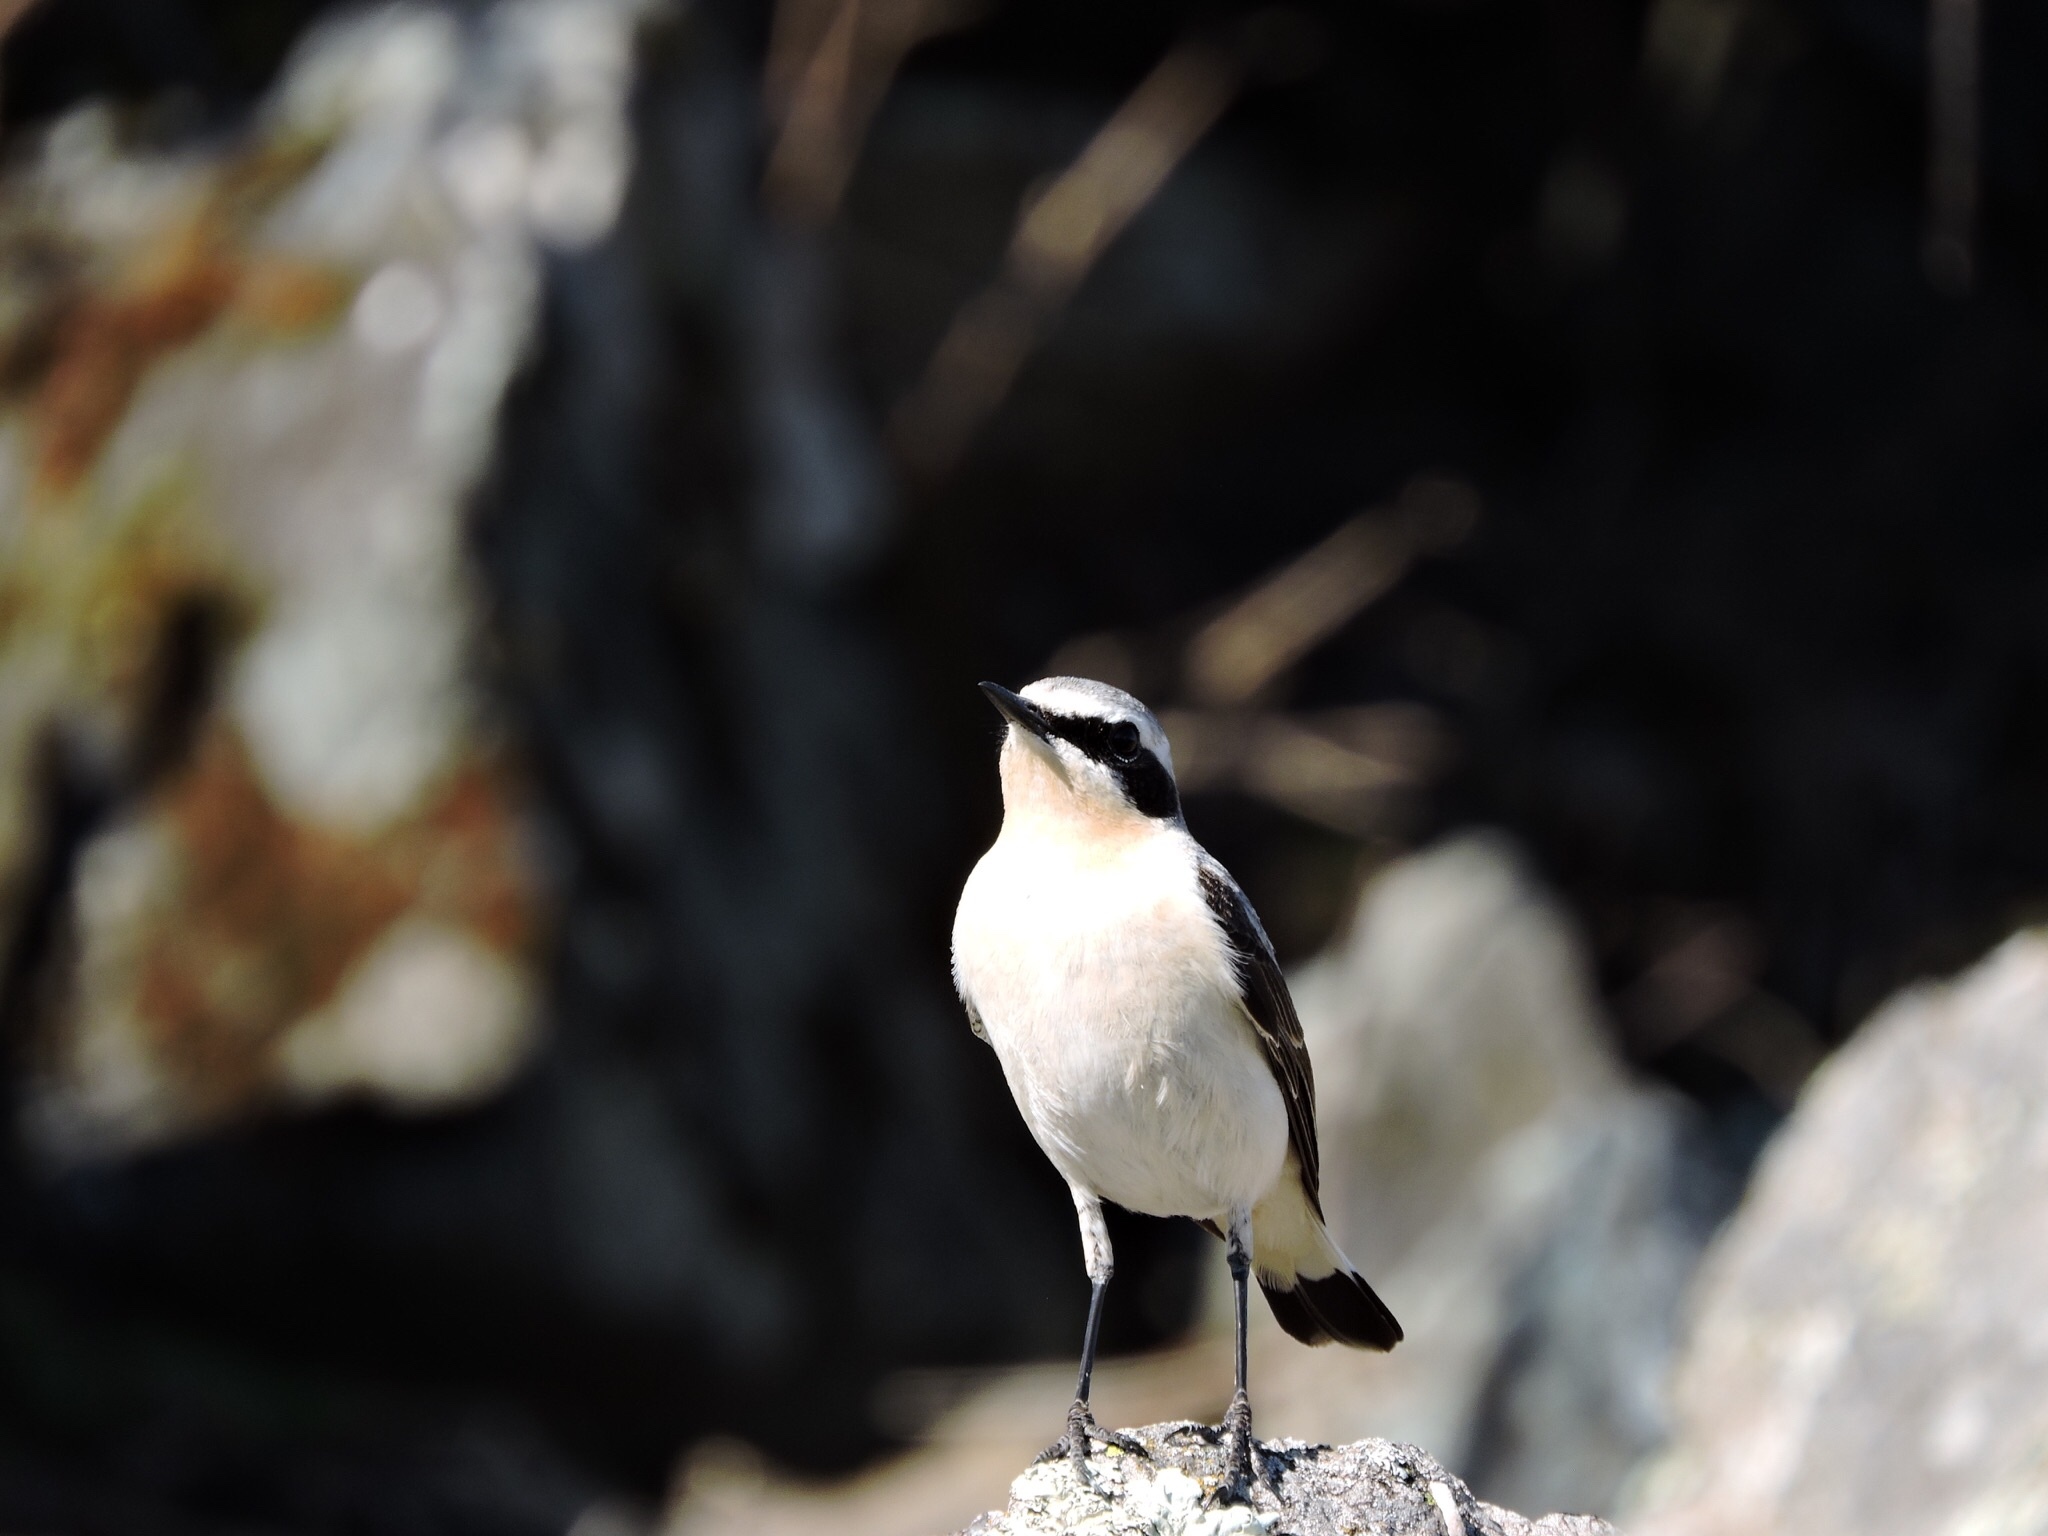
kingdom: Animalia
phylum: Chordata
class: Aves
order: Passeriformes
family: Muscicapidae
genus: Oenanthe
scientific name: Oenanthe oenanthe
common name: Northern wheatear
